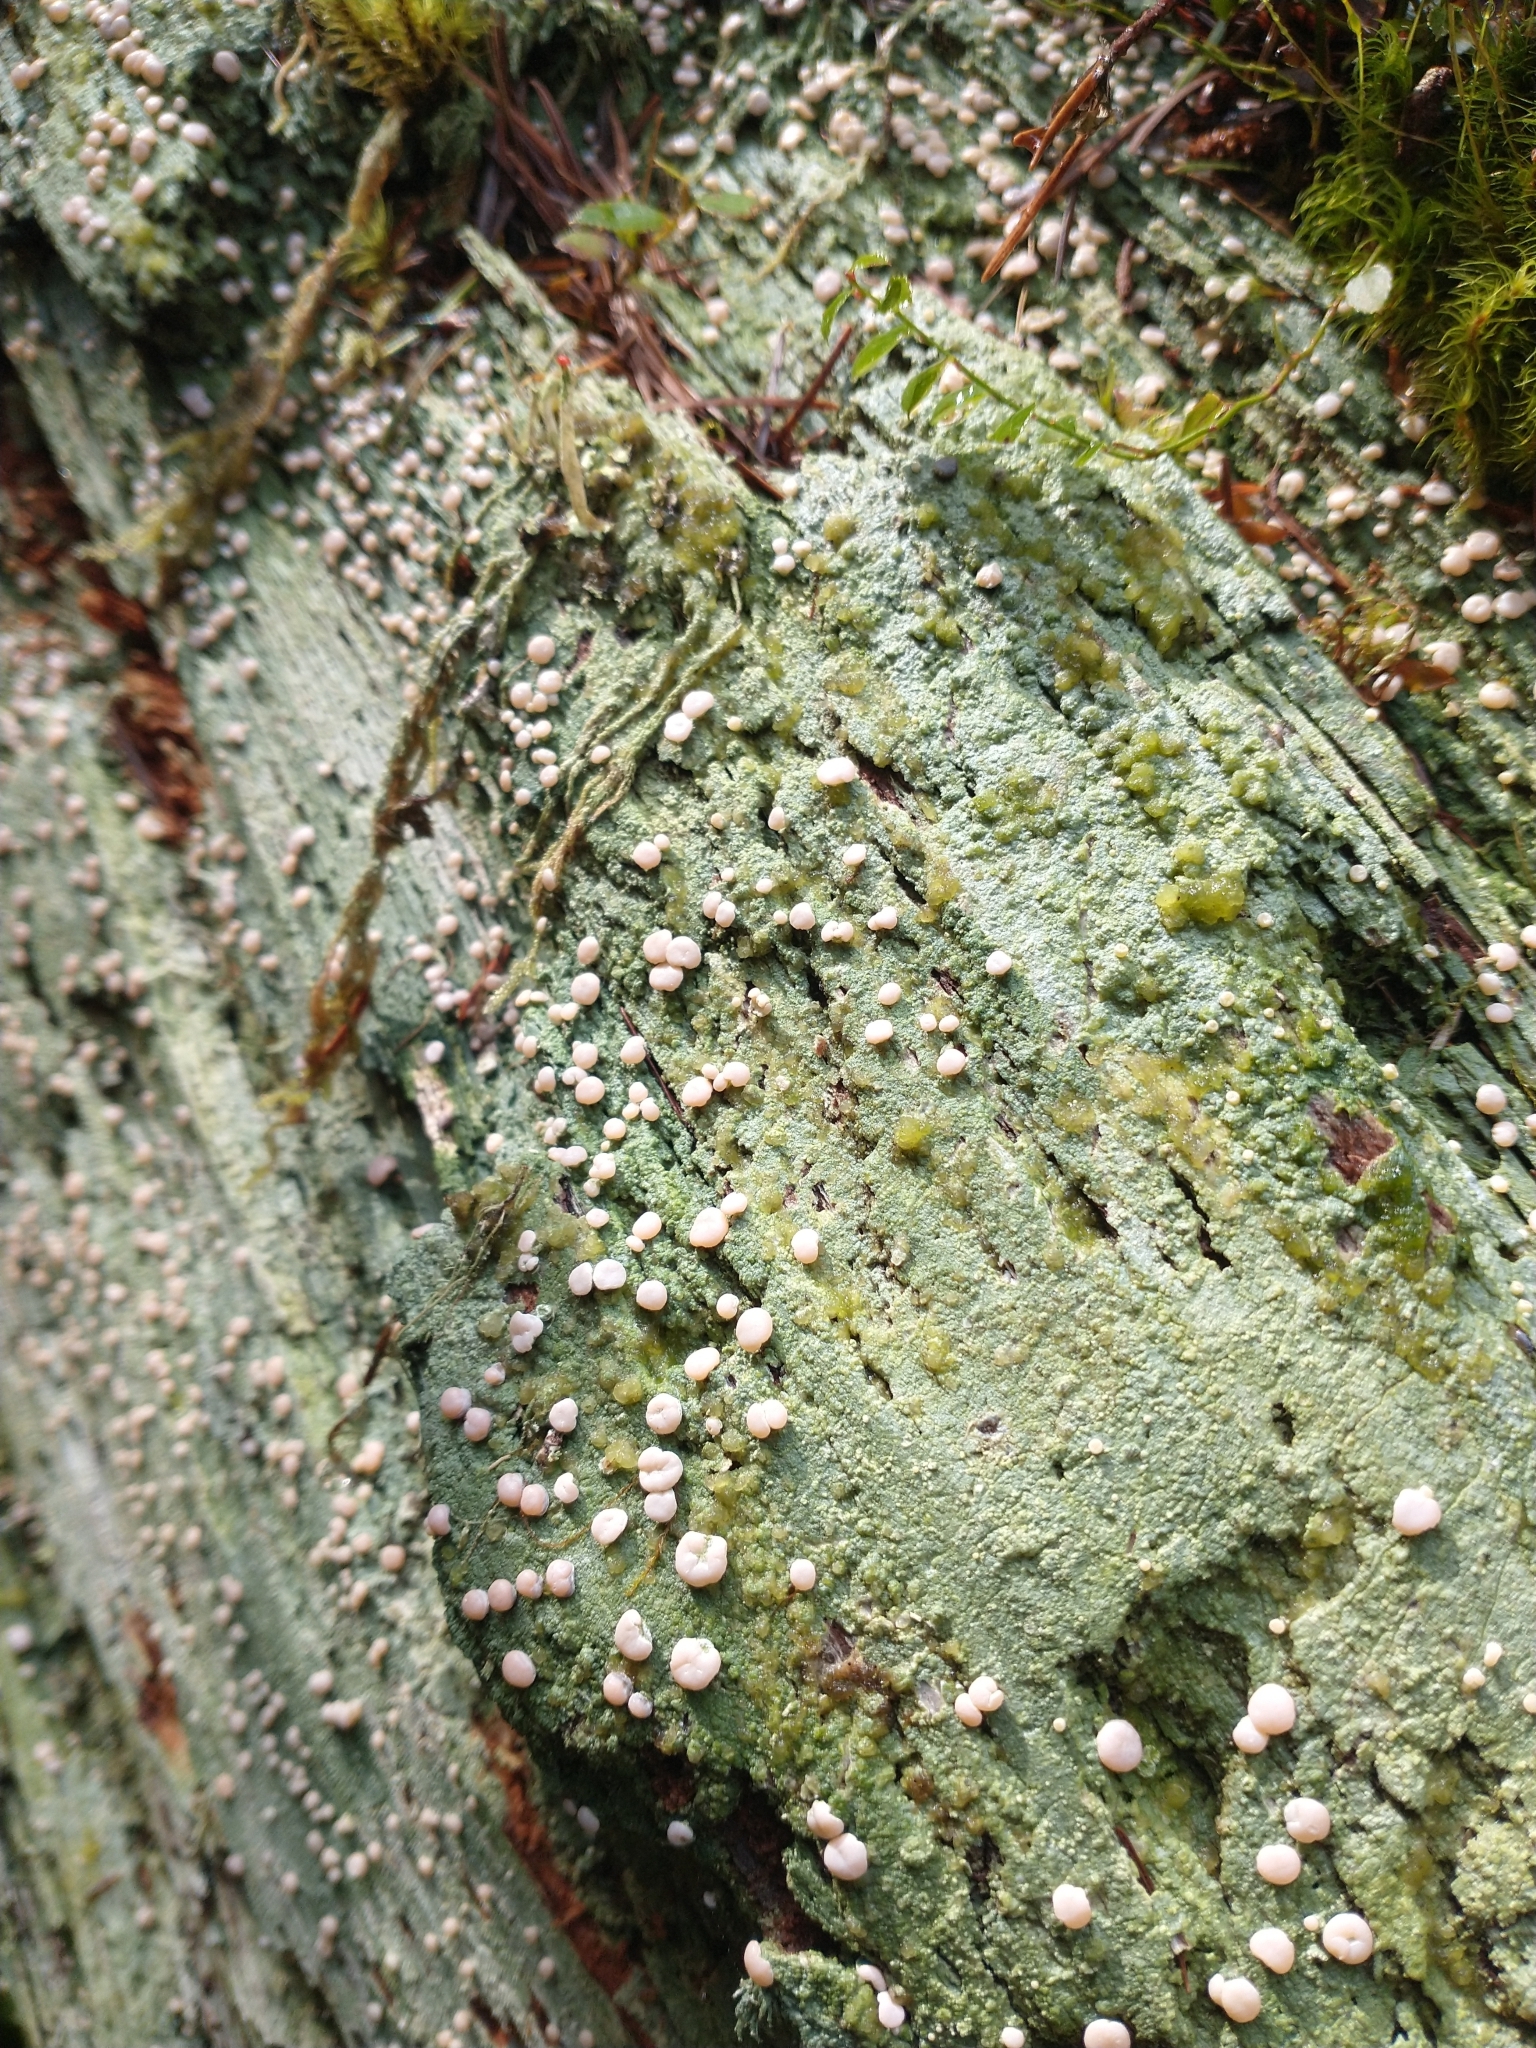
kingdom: Fungi
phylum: Ascomycota
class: Lecanoromycetes
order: Pertusariales
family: Icmadophilaceae
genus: Icmadophila
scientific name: Icmadophila ericetorum
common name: Candy lichen
